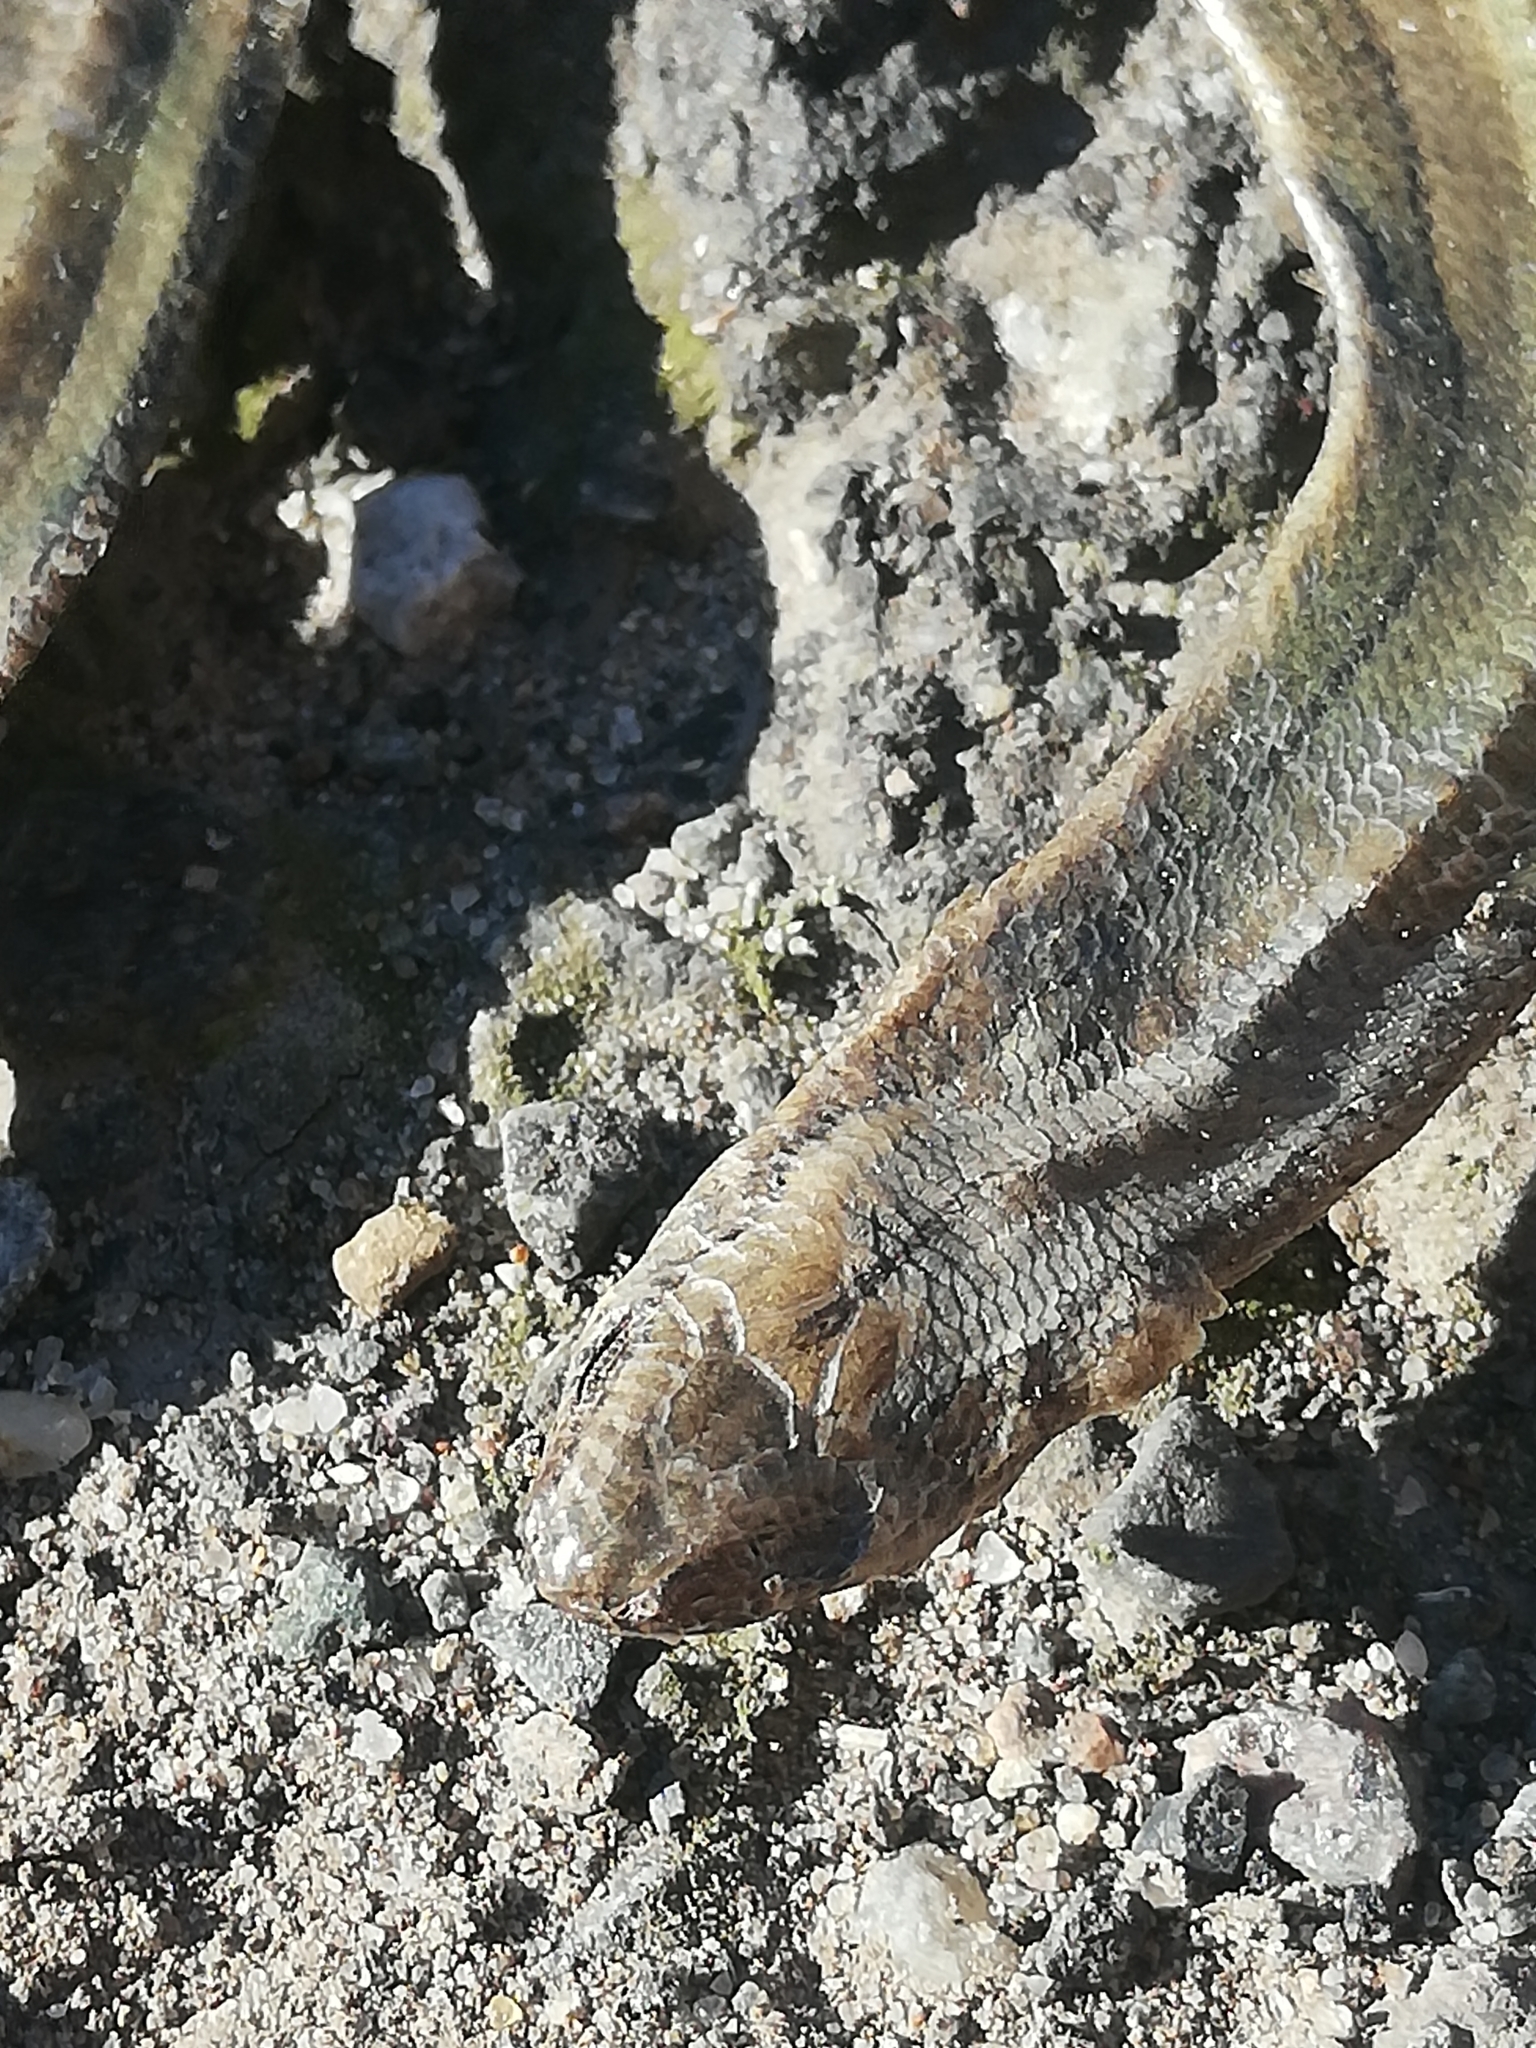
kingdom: Animalia
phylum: Chordata
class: Squamata
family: Anguidae
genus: Anguis
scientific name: Anguis fragilis
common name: Slow worm
